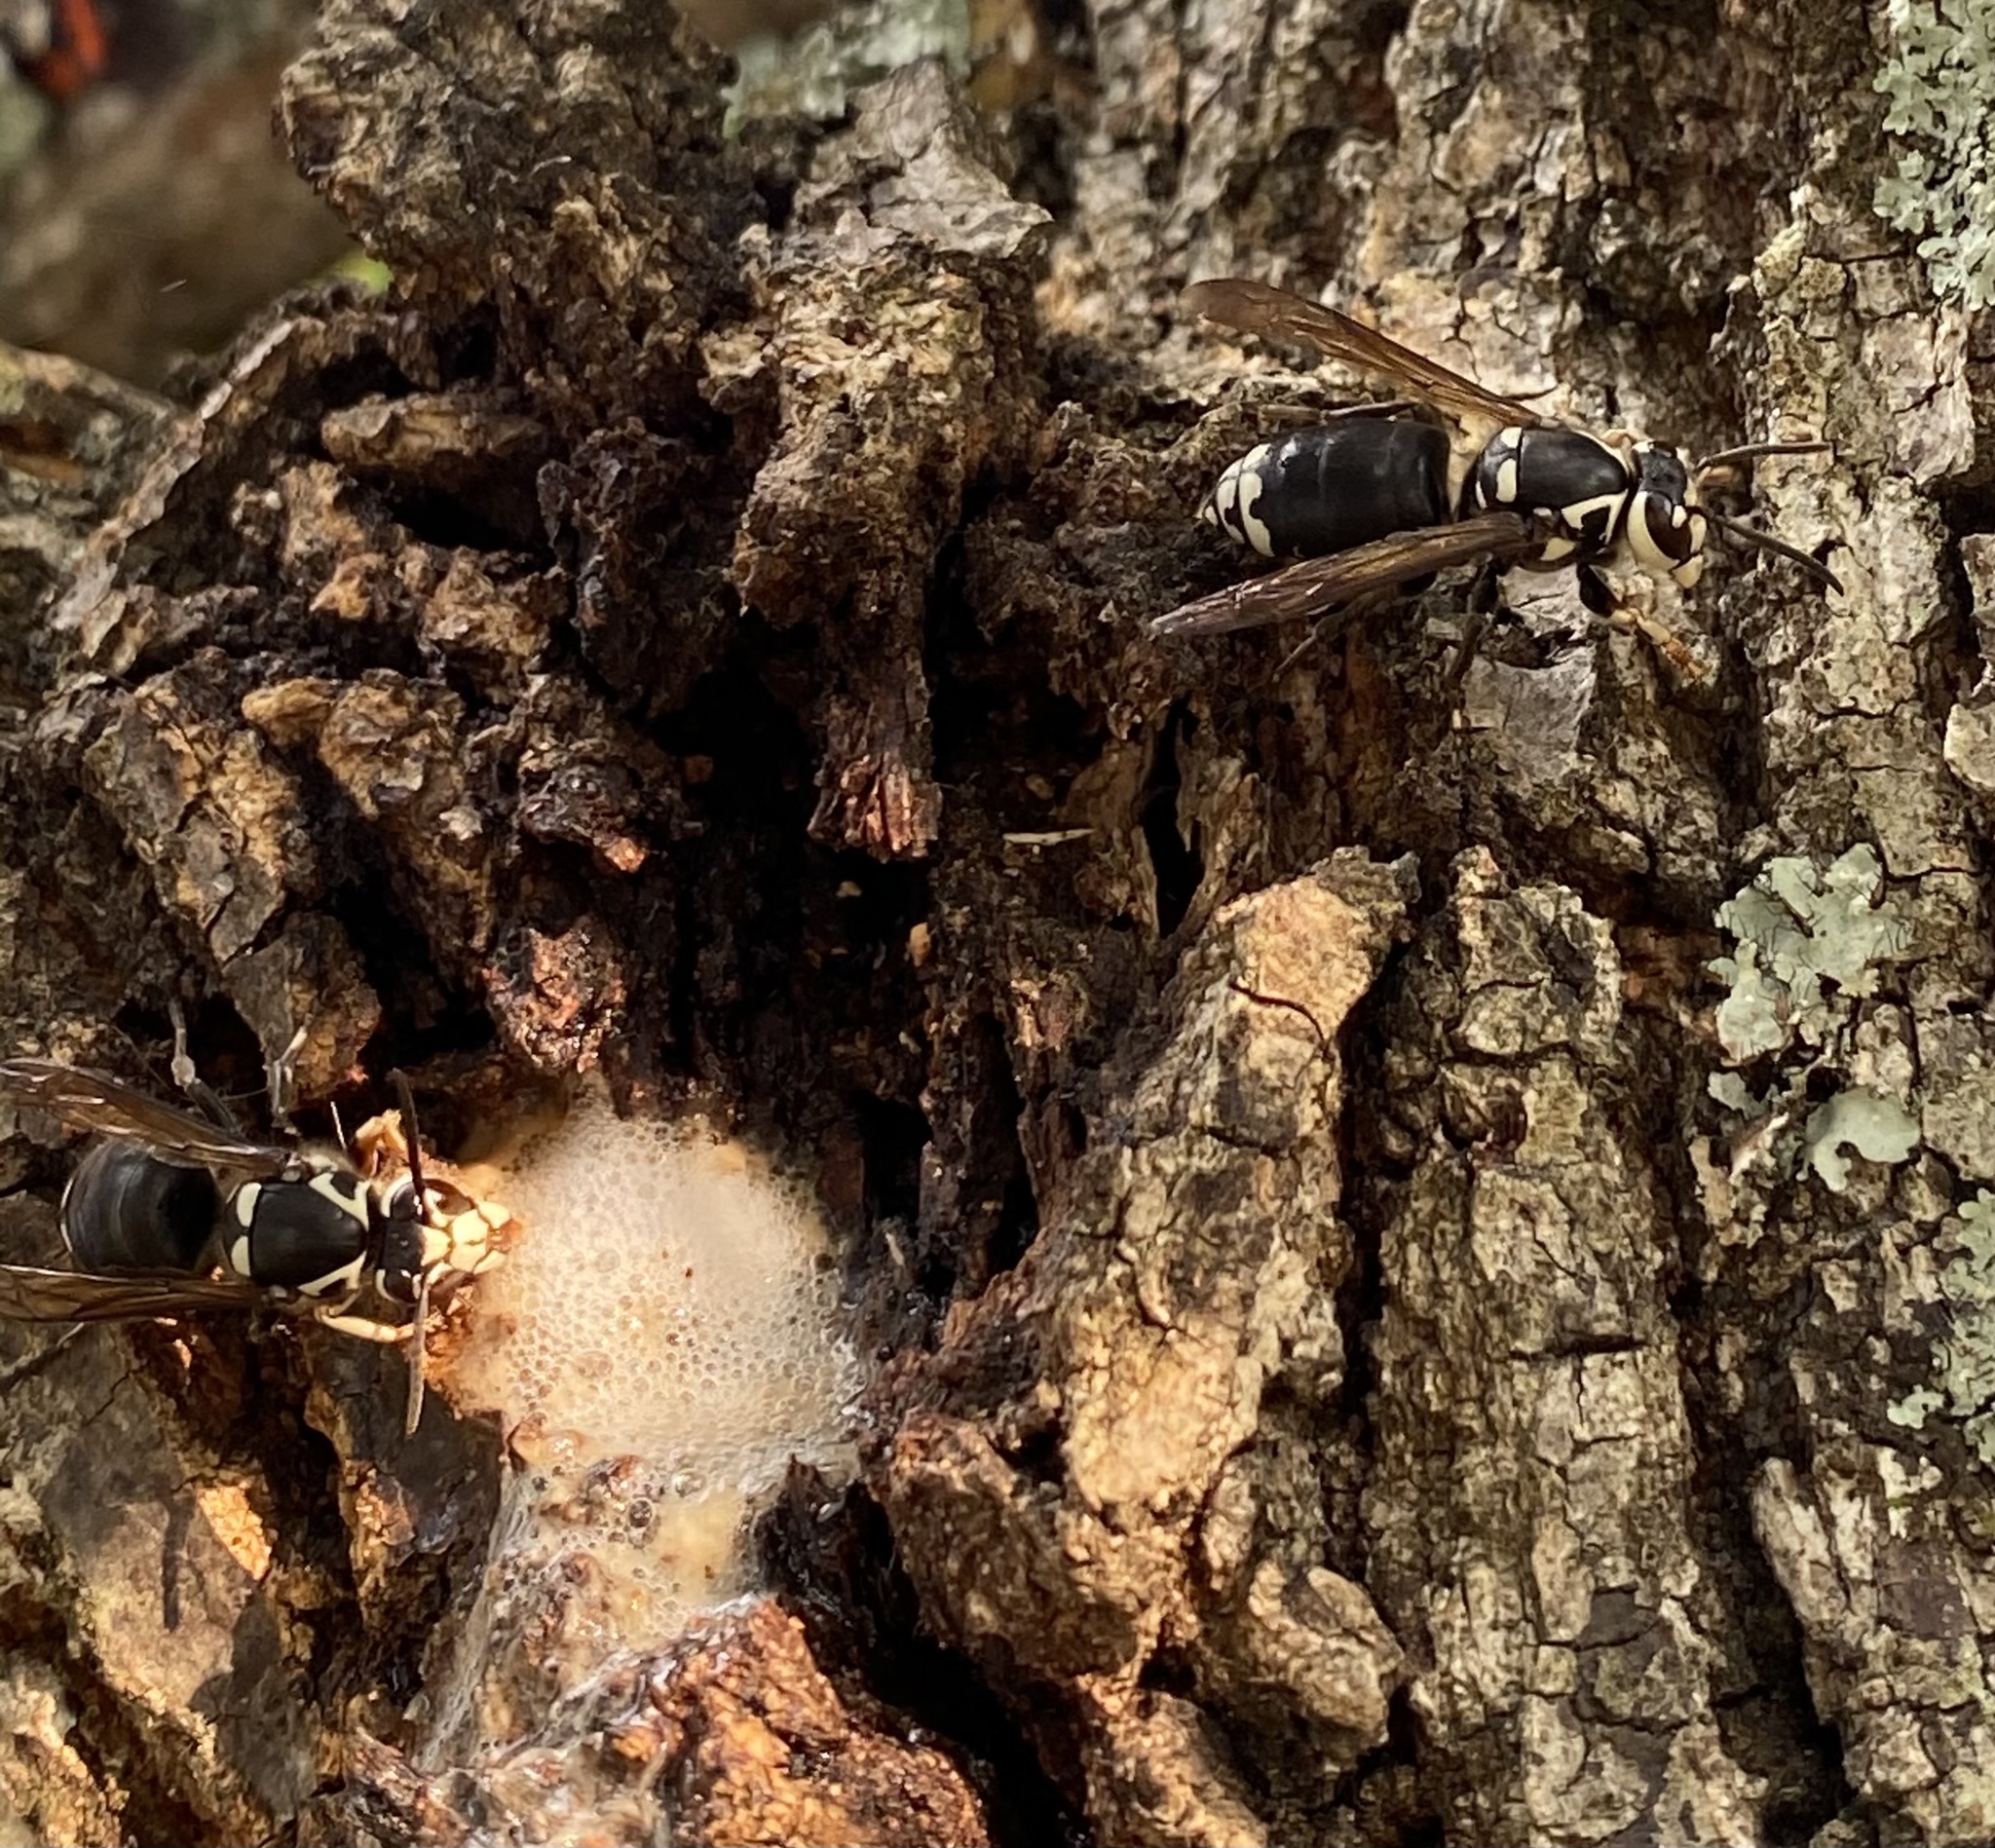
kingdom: Animalia
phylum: Arthropoda
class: Insecta
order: Hymenoptera
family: Vespidae
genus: Dolichovespula
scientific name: Dolichovespula maculata
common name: Bald-faced hornet
